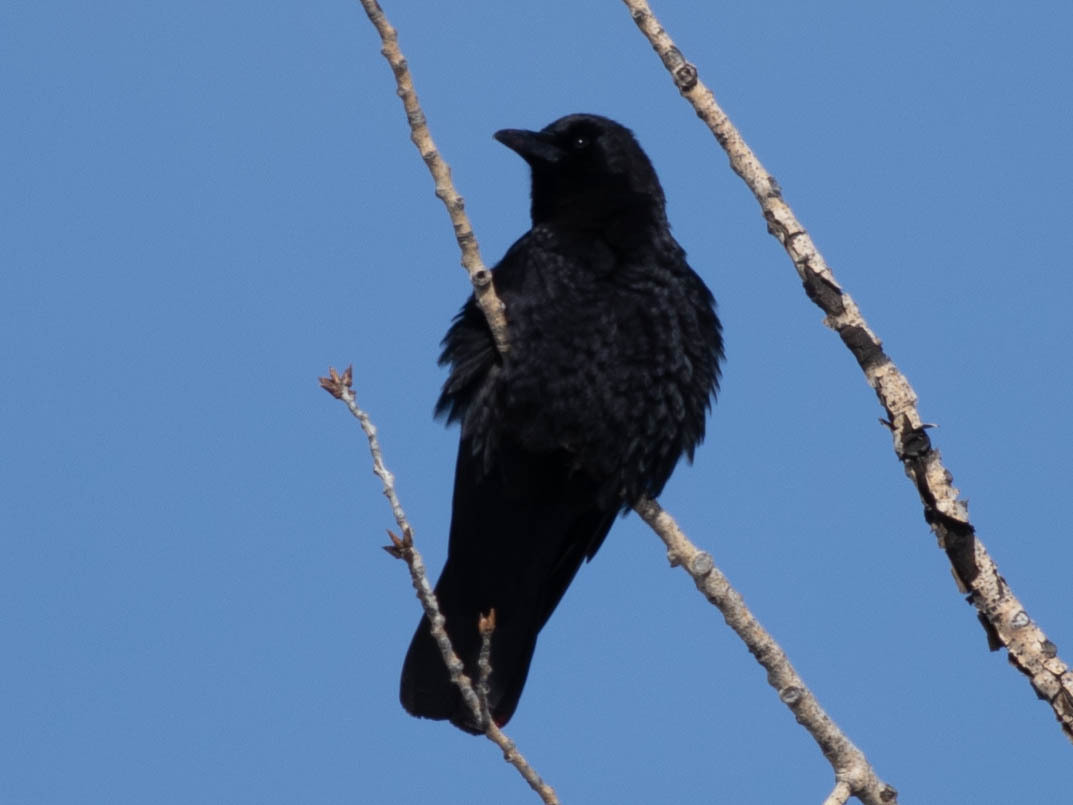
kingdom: Animalia
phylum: Chordata
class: Aves
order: Passeriformes
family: Corvidae
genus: Corvus
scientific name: Corvus brachyrhynchos
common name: American crow
